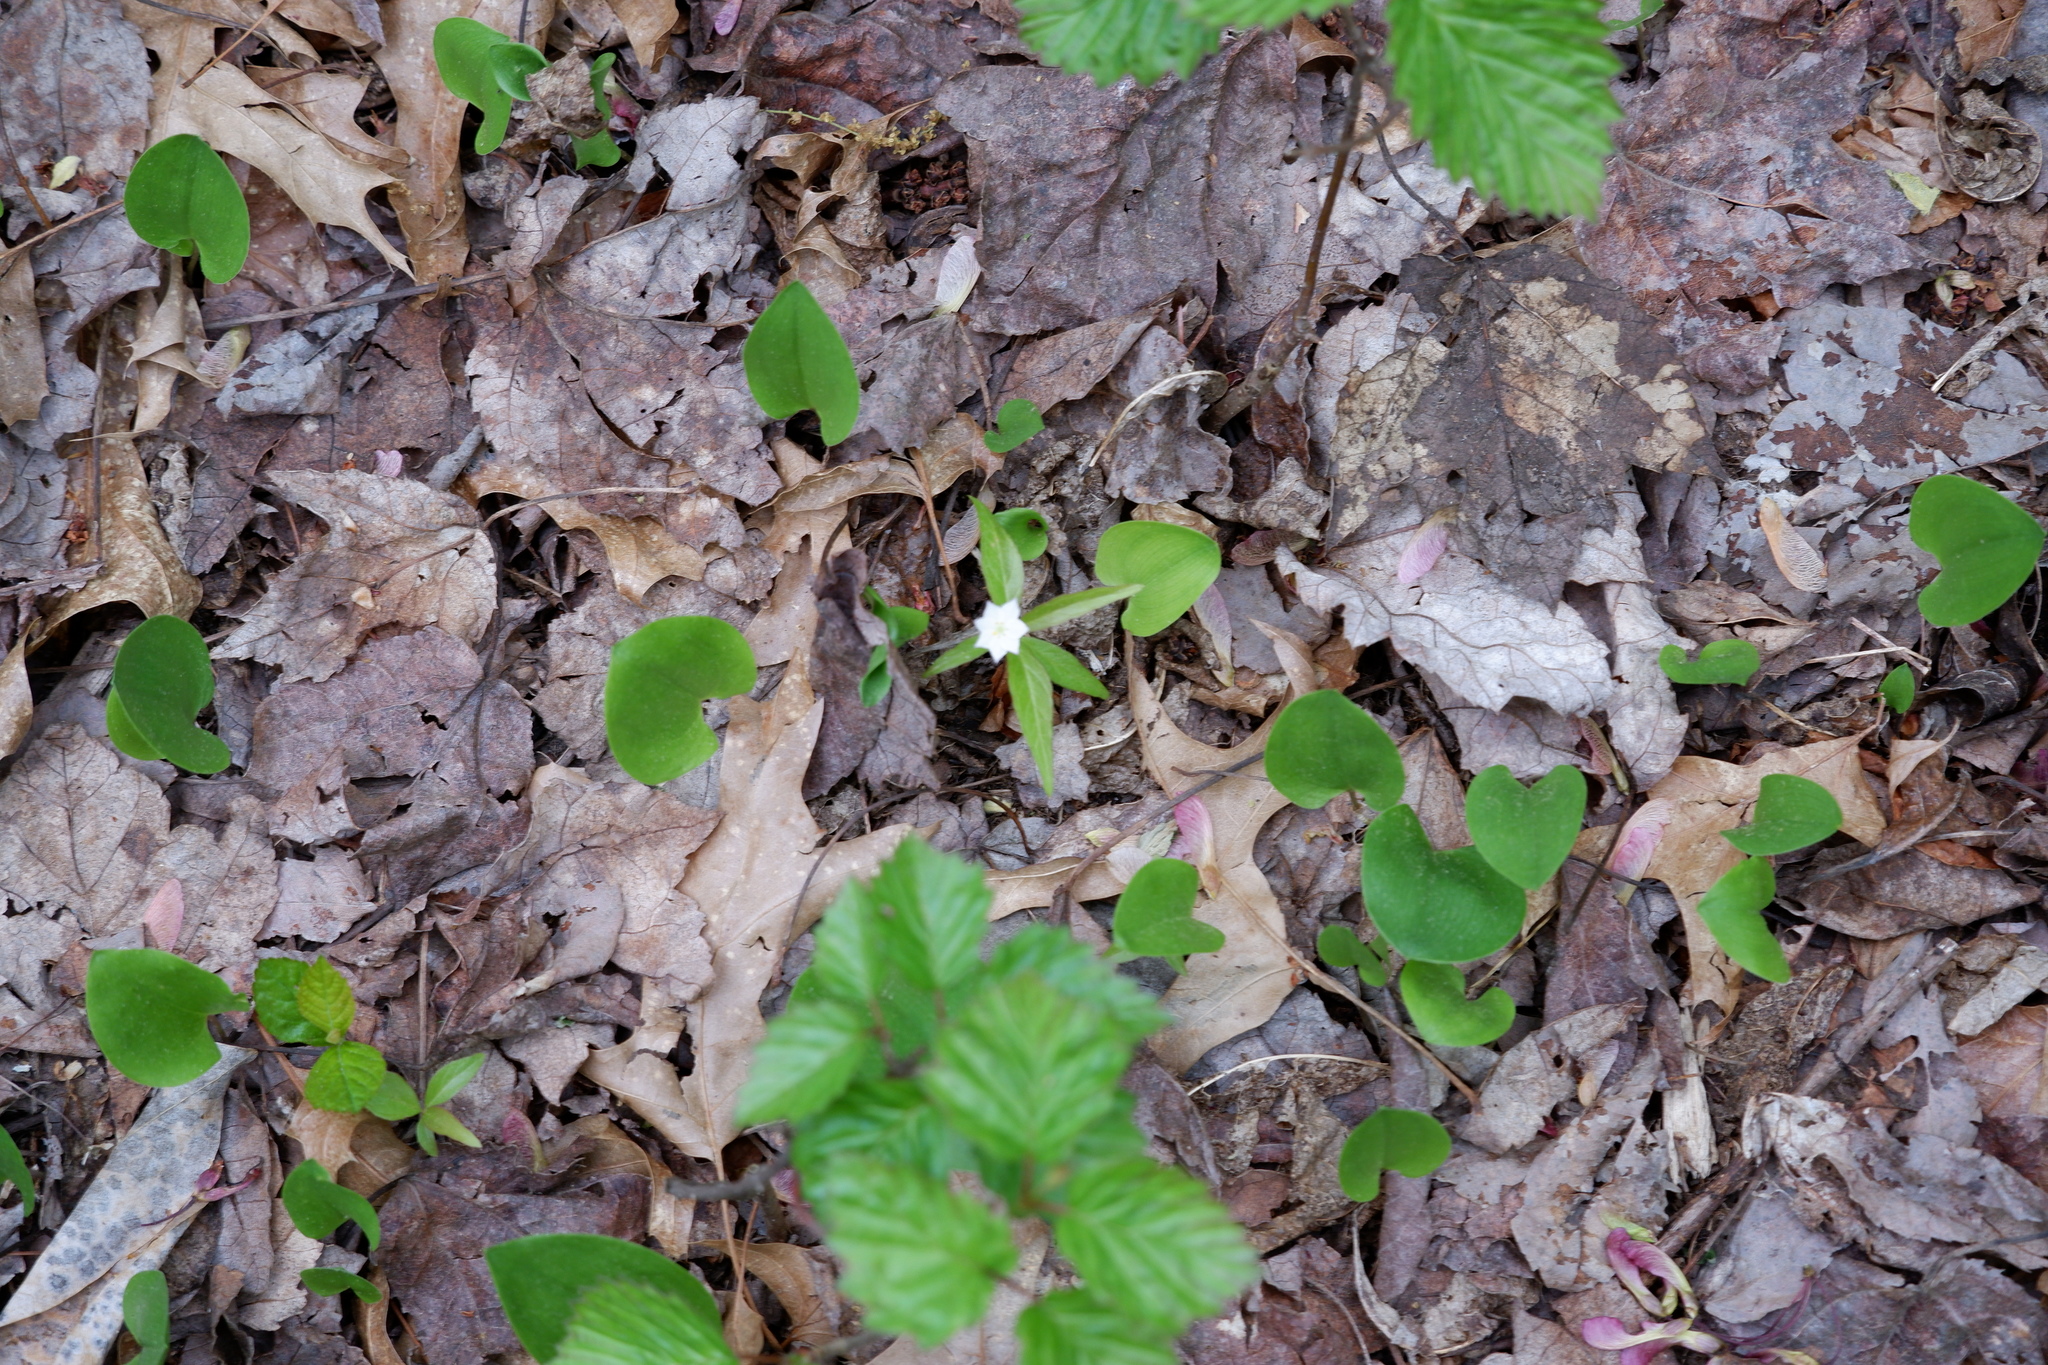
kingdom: Plantae
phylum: Tracheophyta
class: Magnoliopsida
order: Ericales
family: Primulaceae
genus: Lysimachia
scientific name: Lysimachia borealis
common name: American starflower
